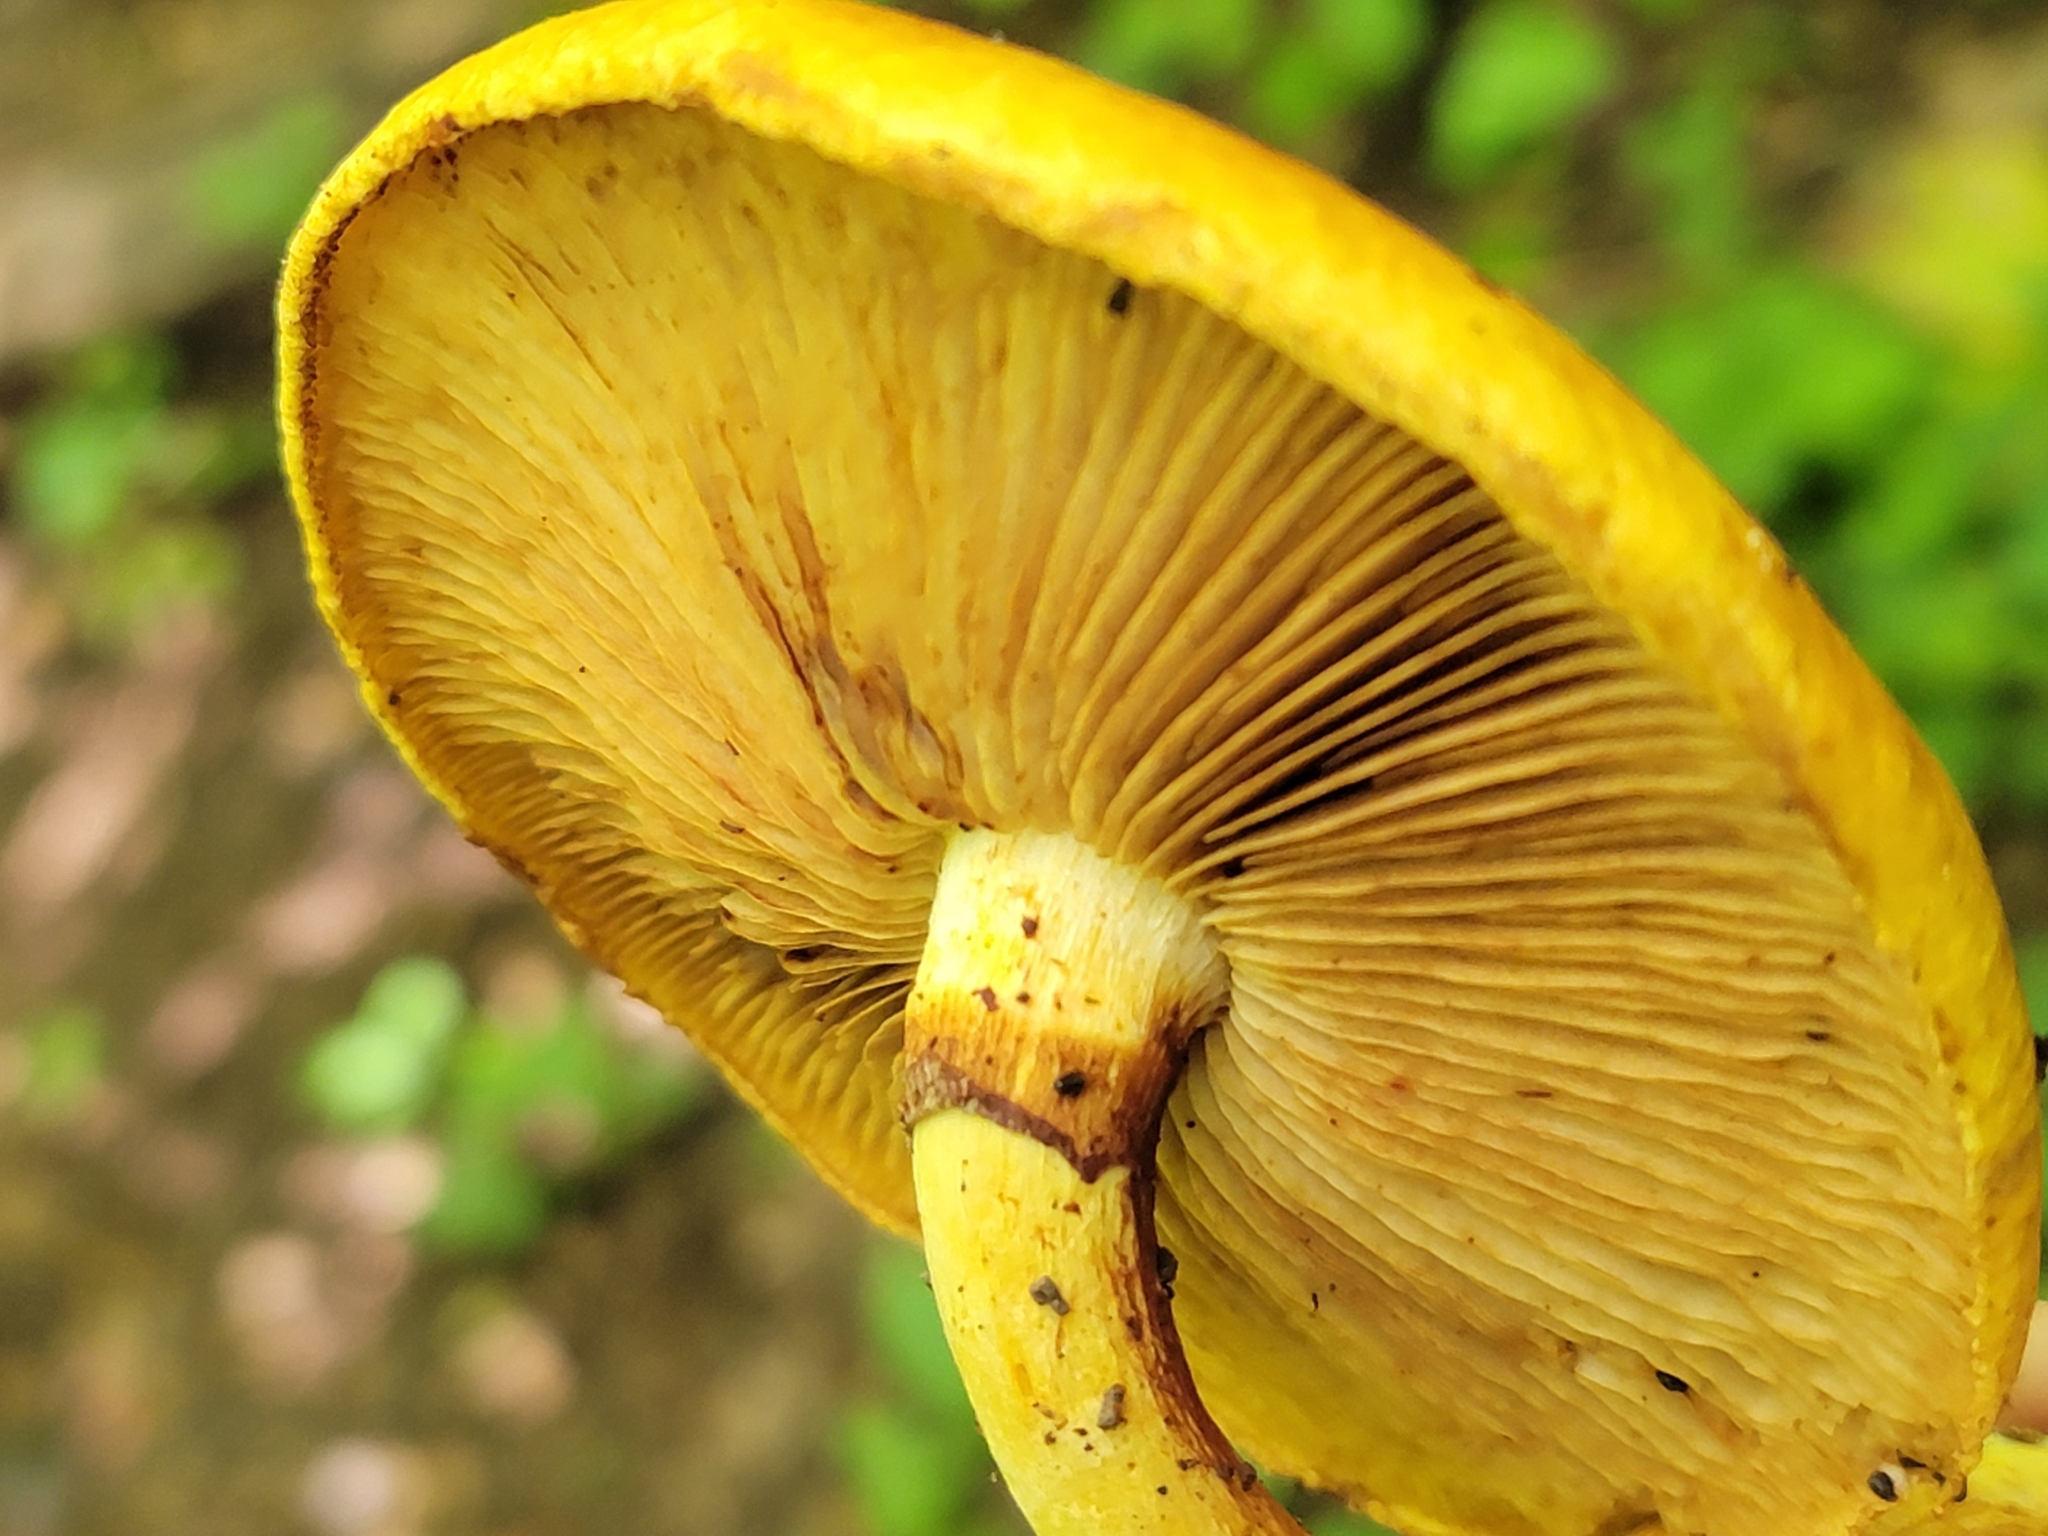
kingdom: Fungi
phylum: Basidiomycota
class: Agaricomycetes
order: Agaricales
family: Hymenogastraceae
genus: Gymnopilus
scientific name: Gymnopilus luteus
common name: Yellow gymnopilus
